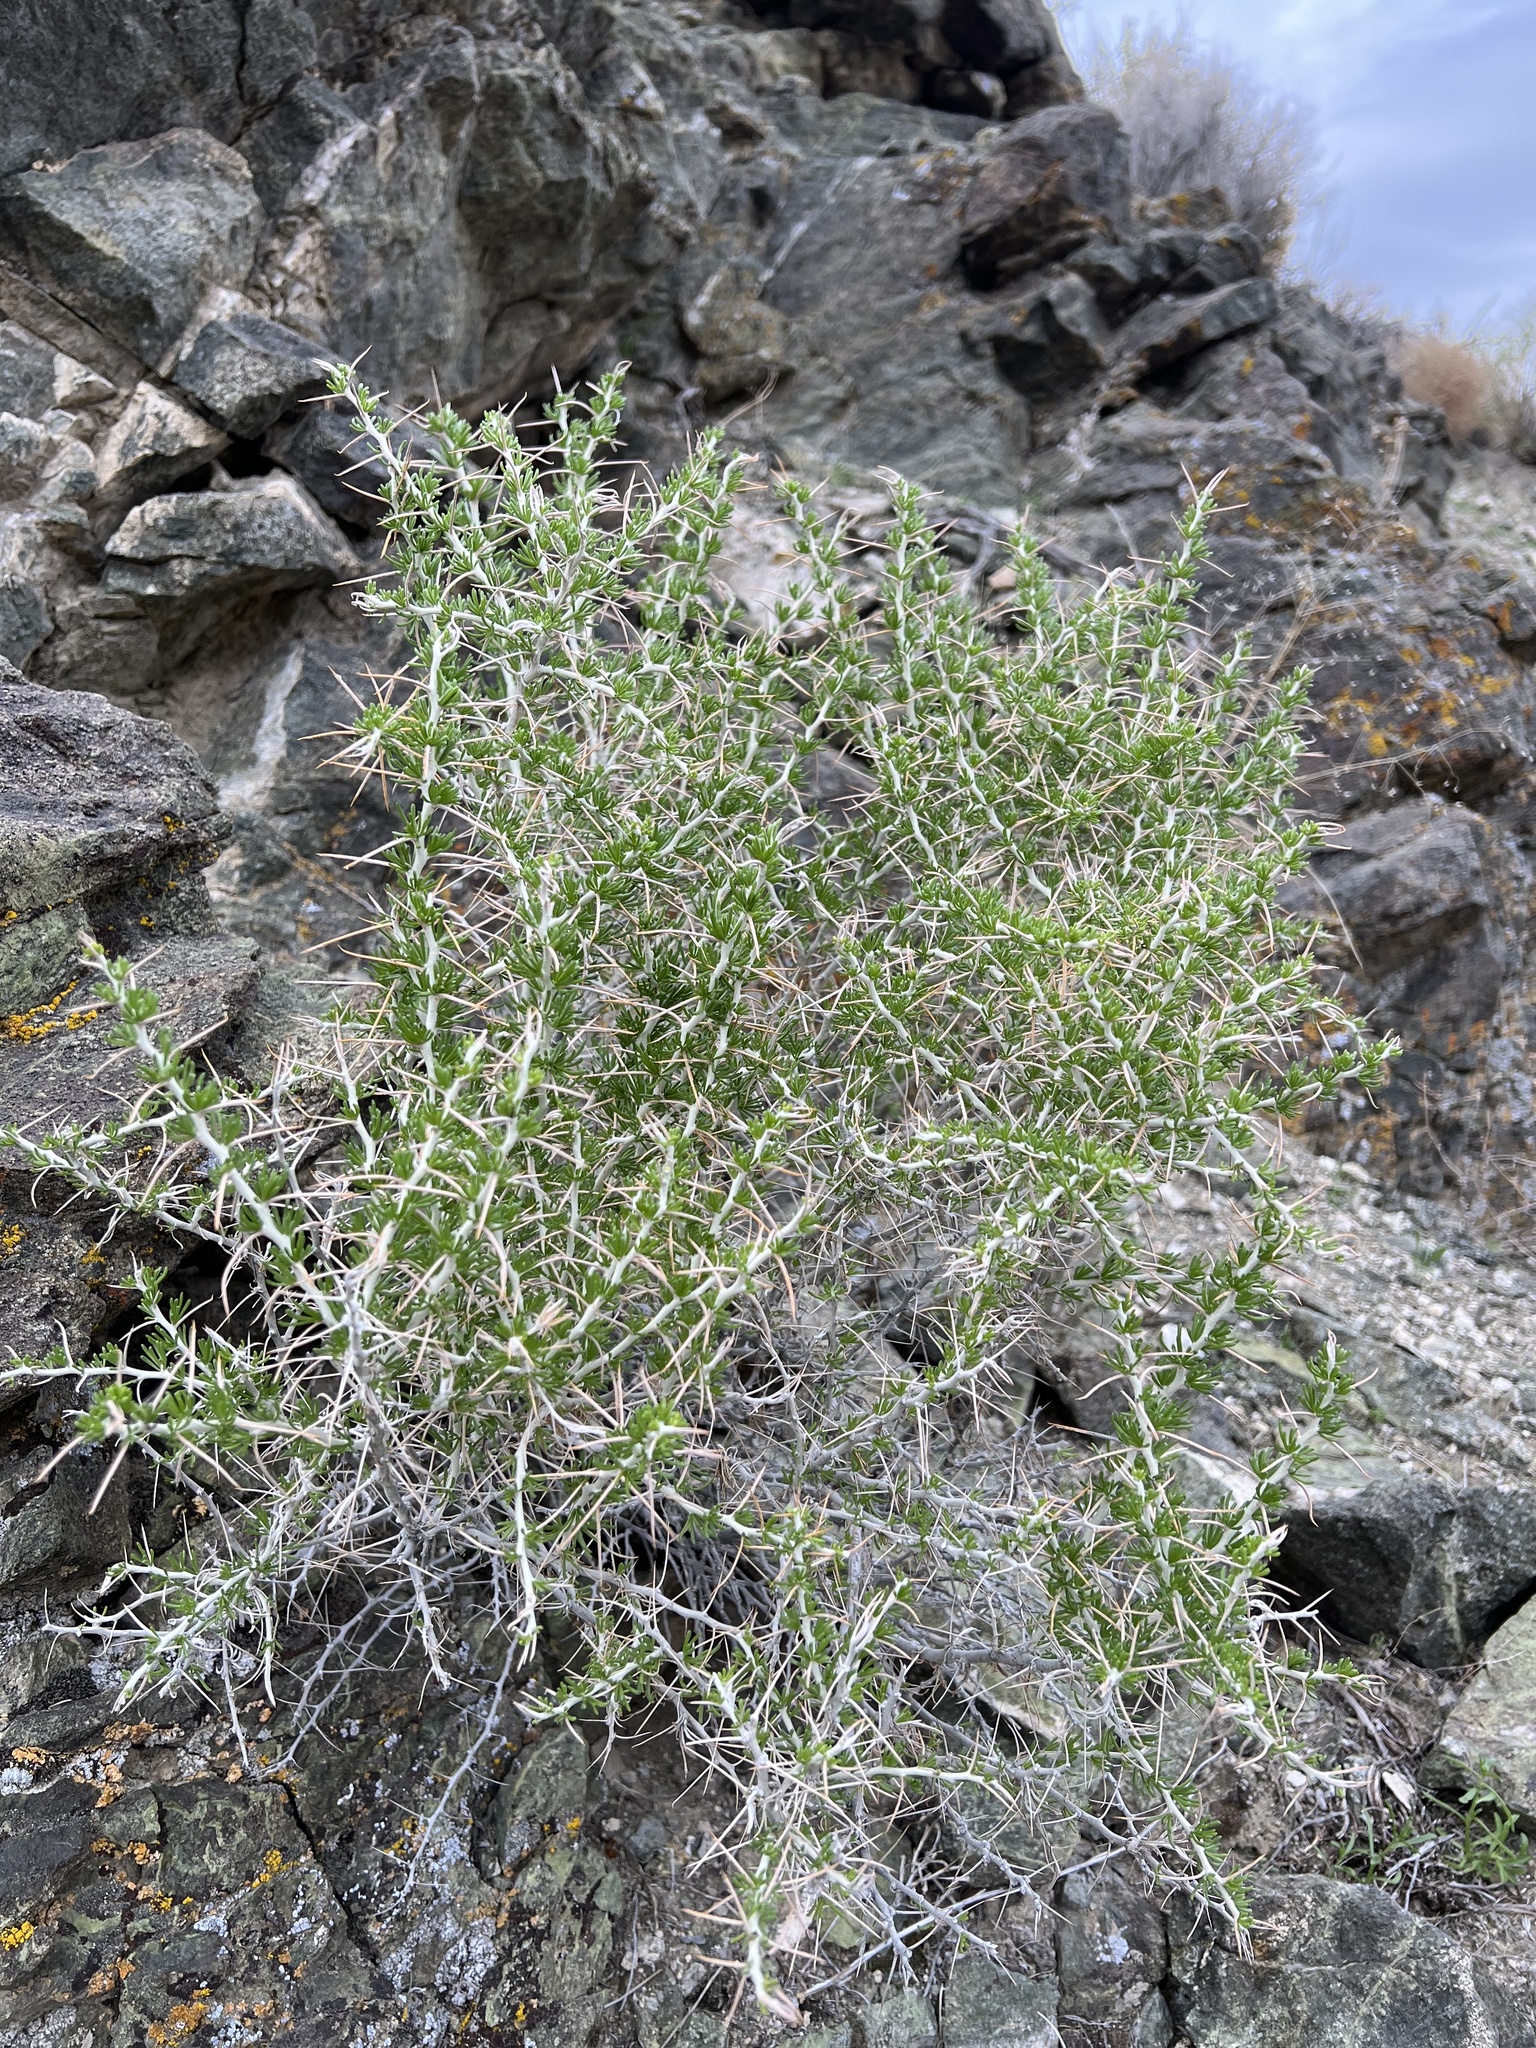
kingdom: Plantae
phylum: Tracheophyta
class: Magnoliopsida
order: Asterales
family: Asteraceae
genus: Tetradymia
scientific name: Tetradymia axillaris
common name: Long-spine horsebrush
